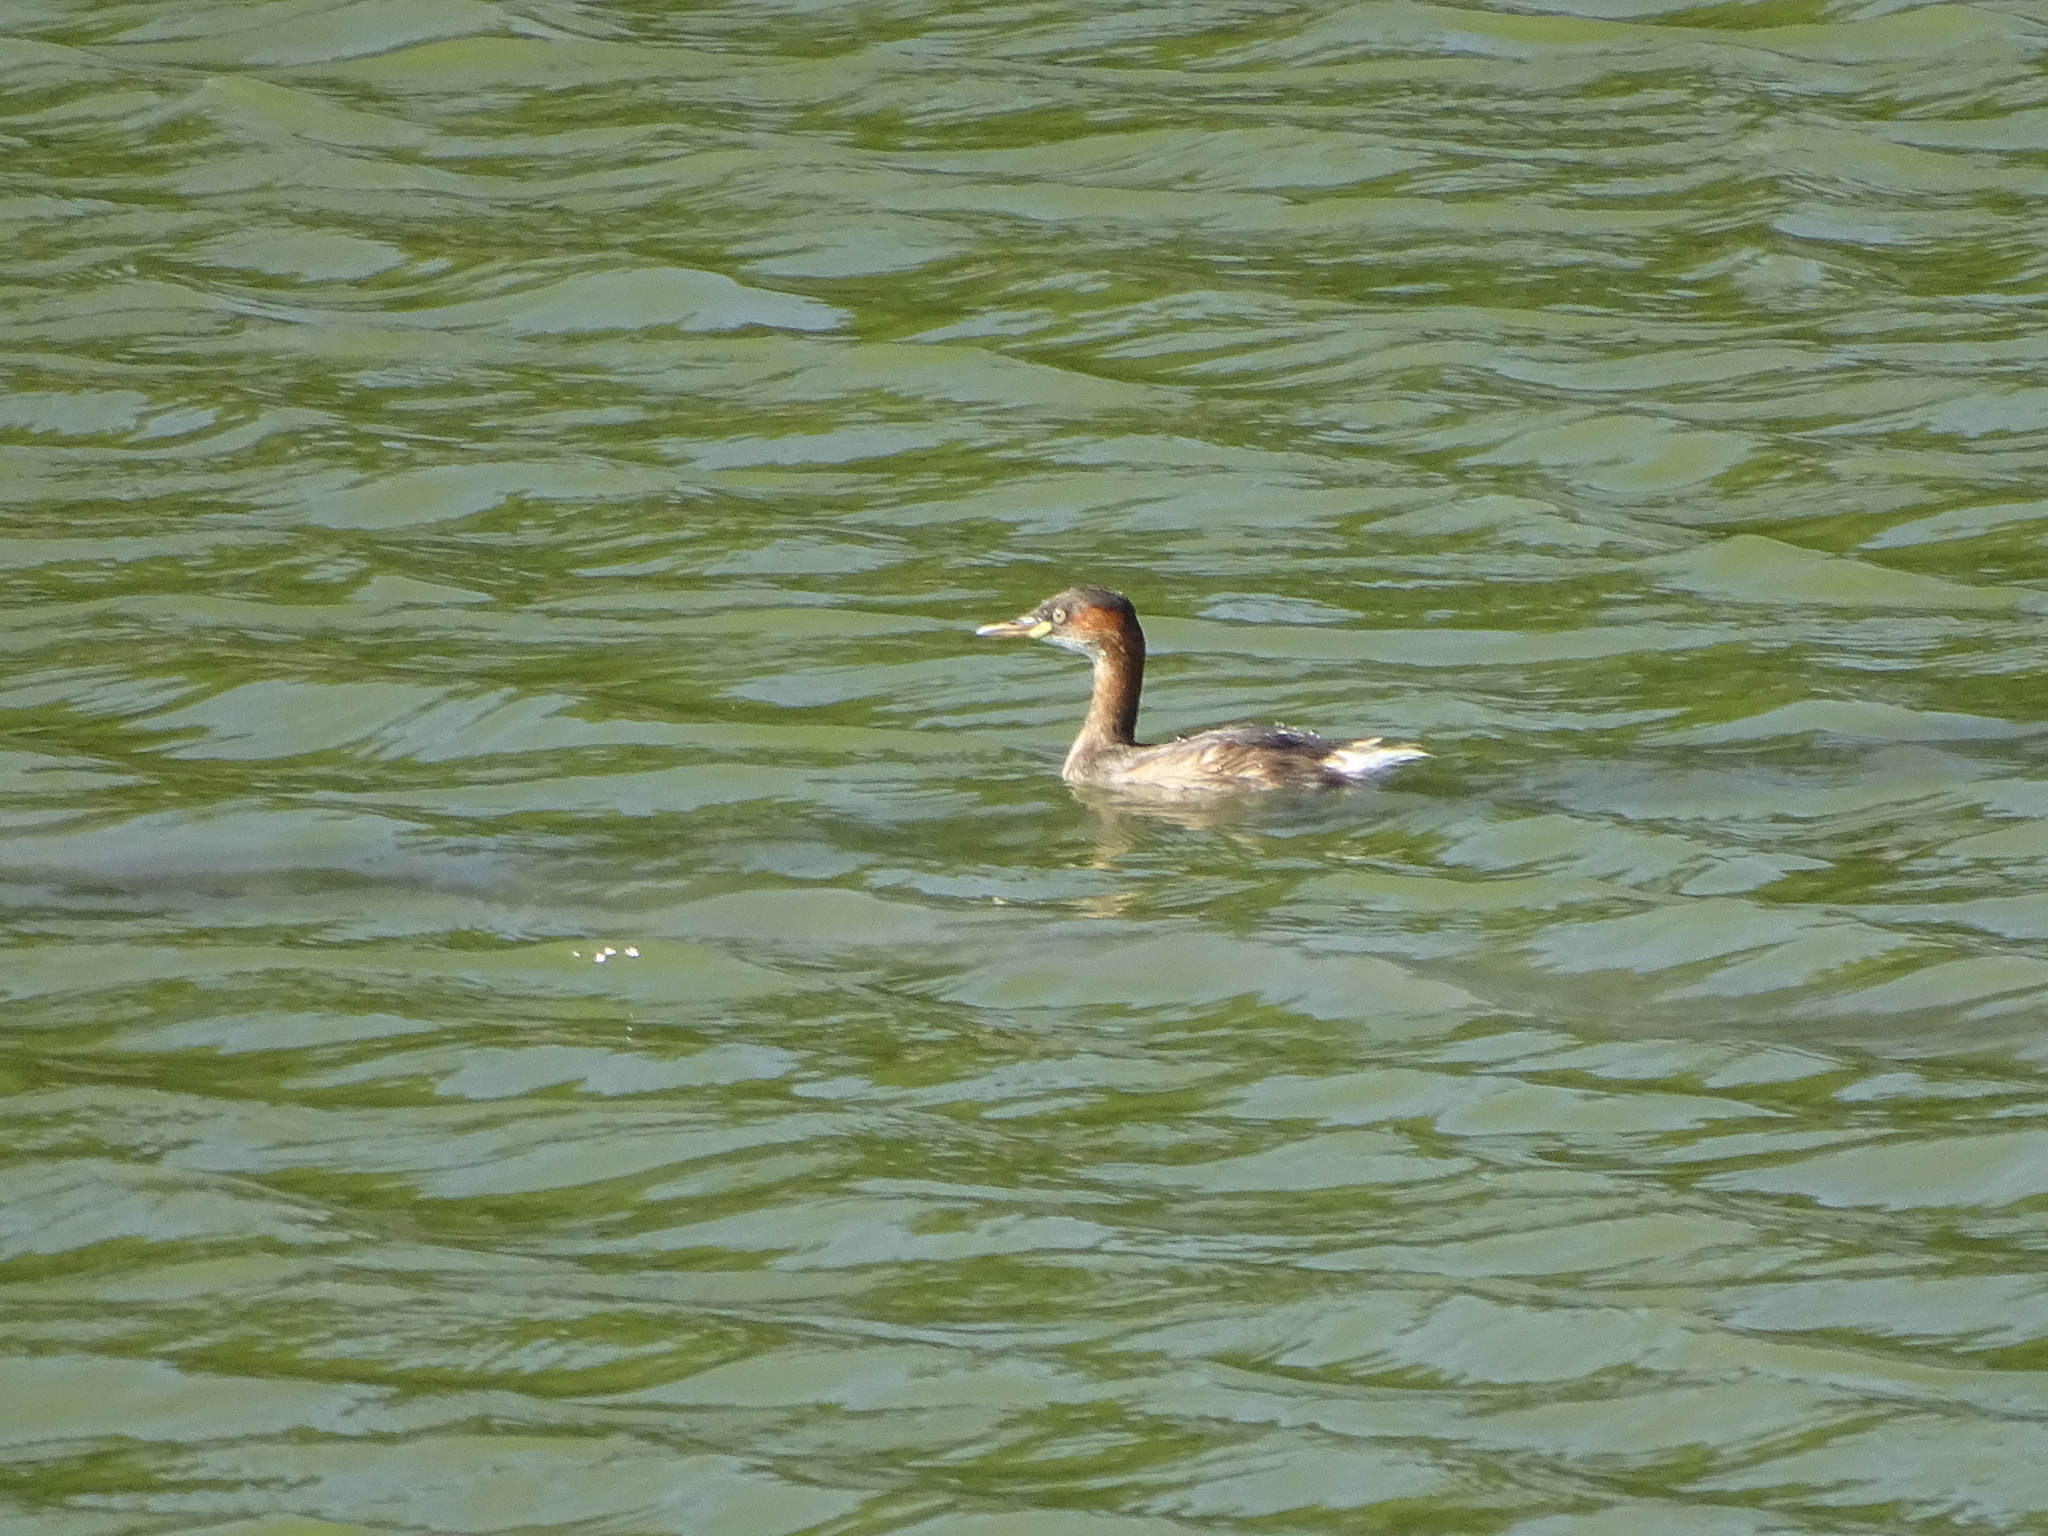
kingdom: Animalia
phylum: Chordata
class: Aves
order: Podicipediformes
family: Podicipedidae
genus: Tachybaptus
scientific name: Tachybaptus ruficollis
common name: Little grebe
